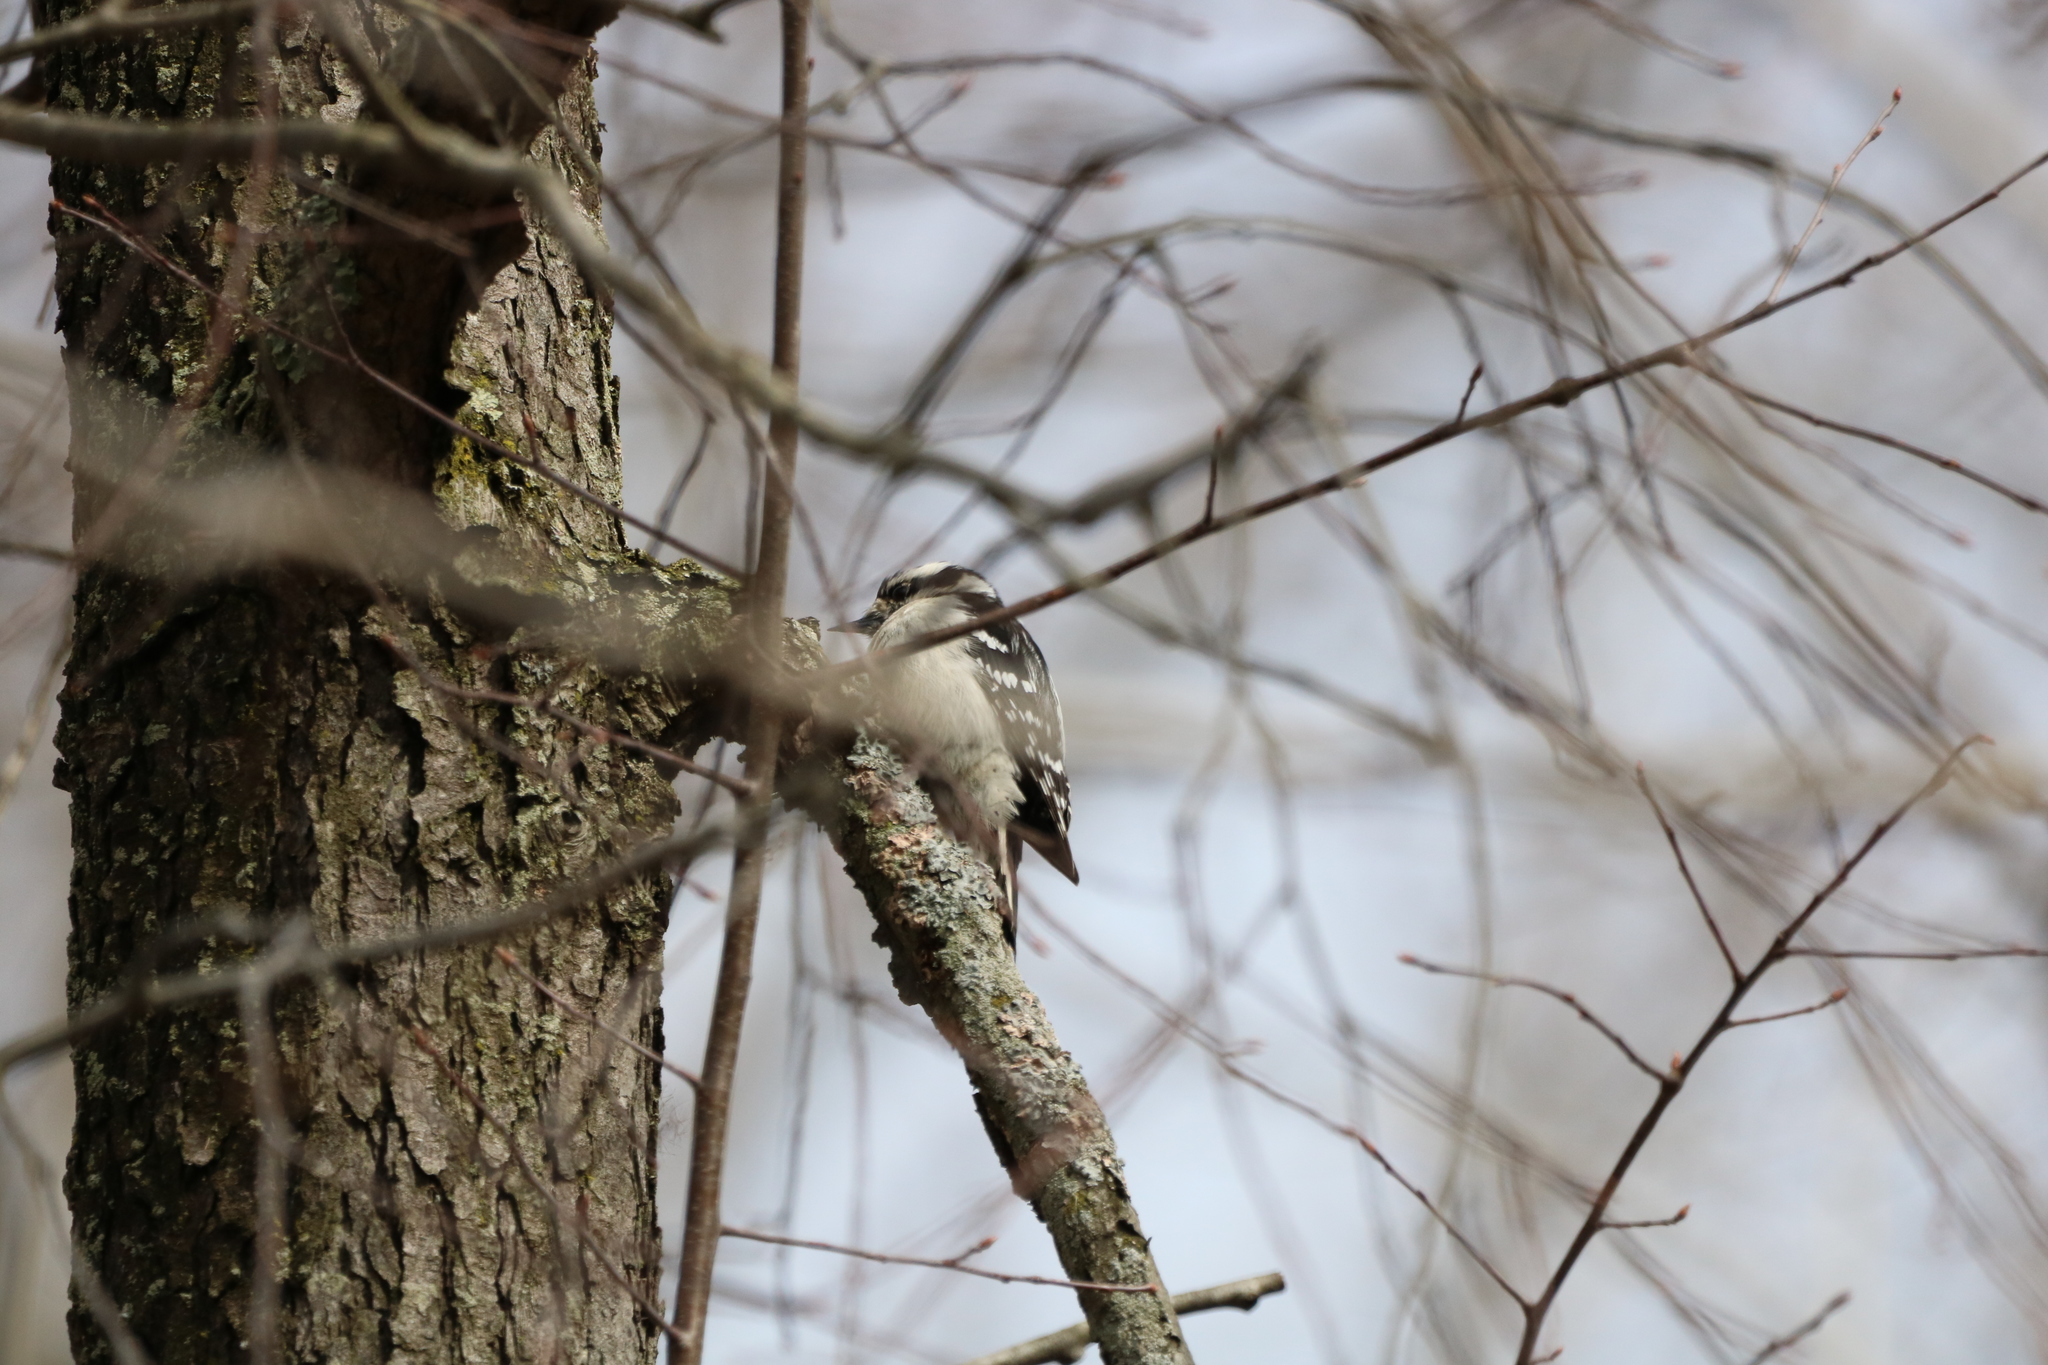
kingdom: Animalia
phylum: Chordata
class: Aves
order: Piciformes
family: Picidae
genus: Dryobates
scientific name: Dryobates pubescens
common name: Downy woodpecker
